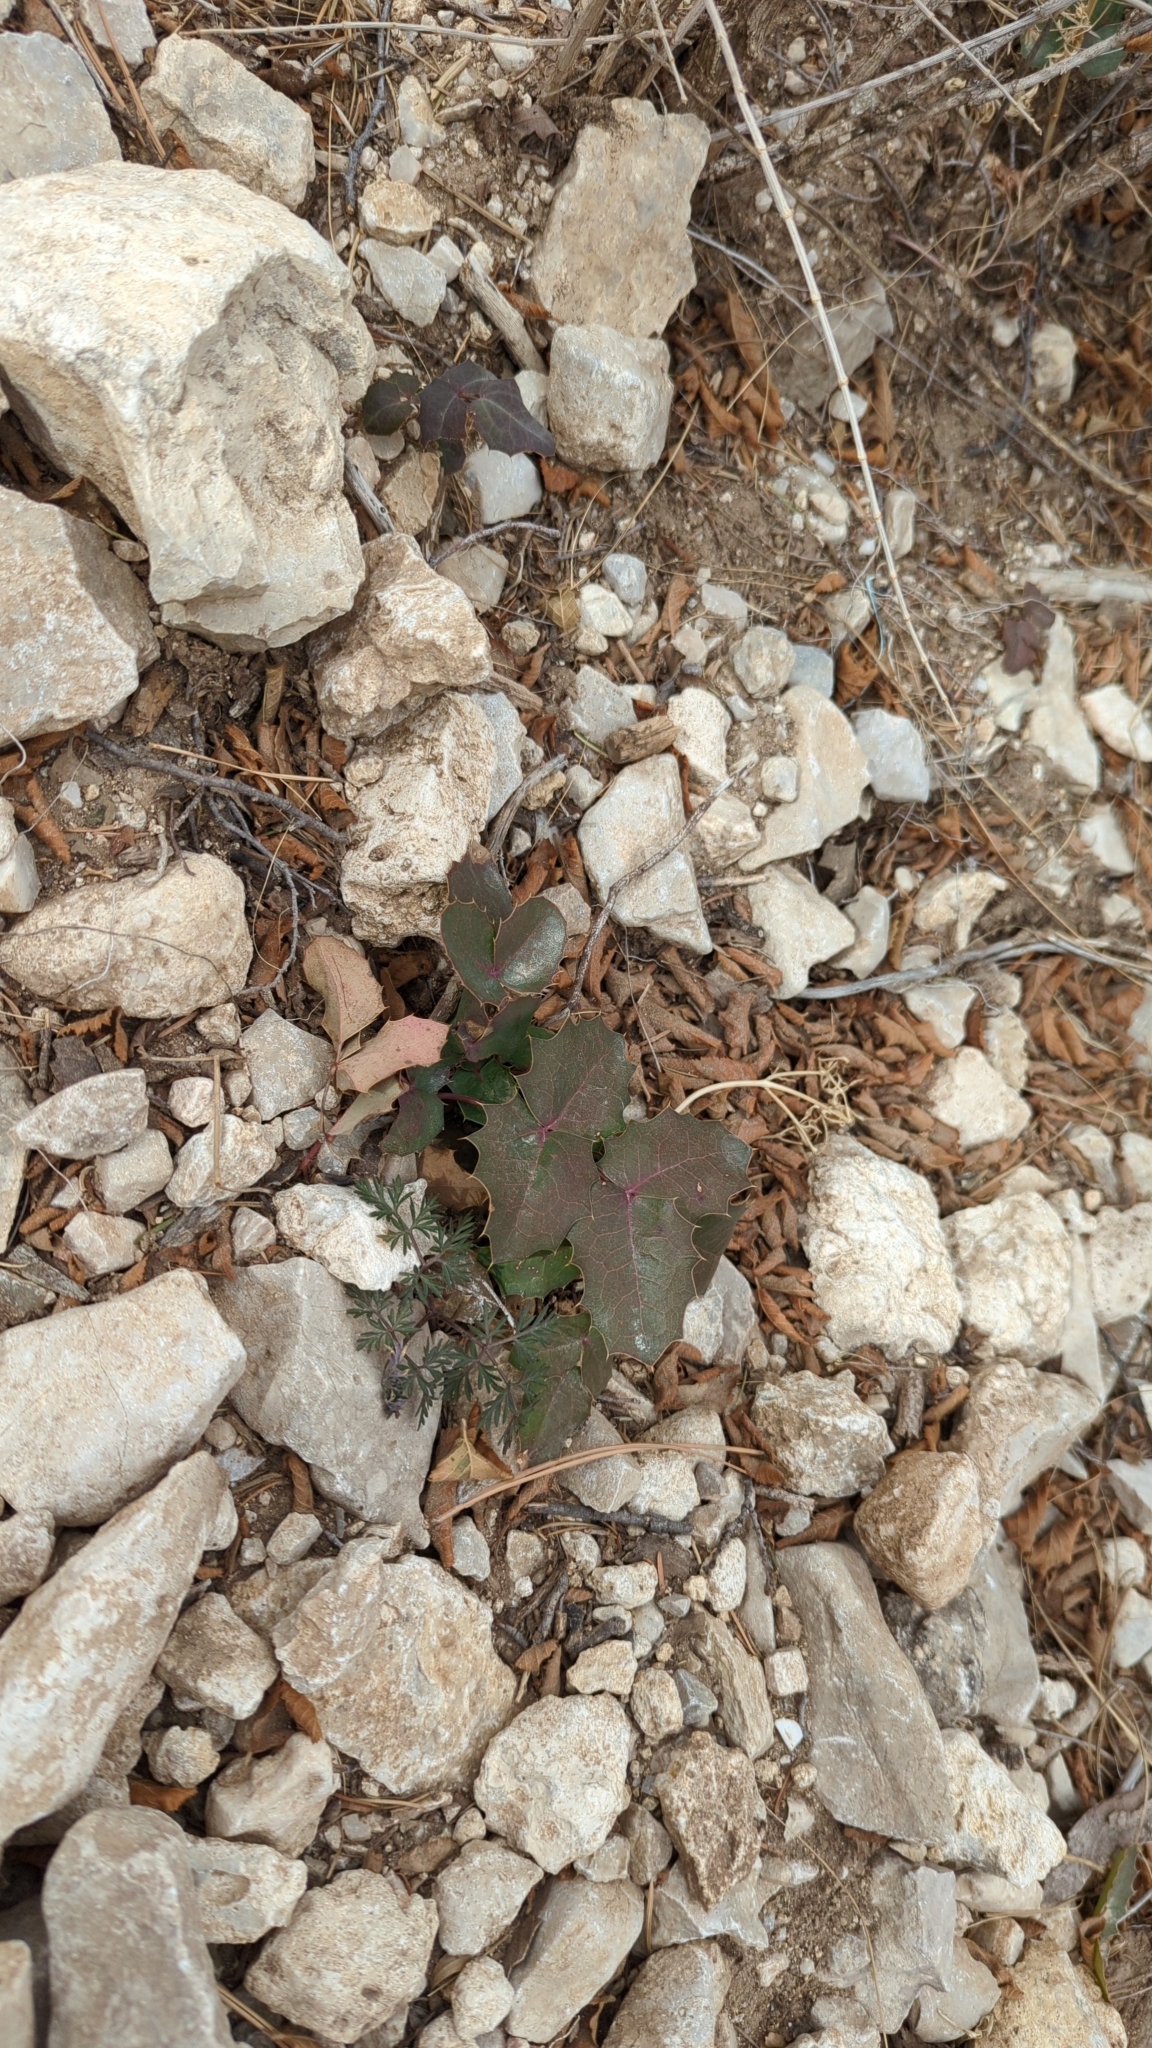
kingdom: Plantae
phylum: Tracheophyta
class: Magnoliopsida
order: Ranunculales
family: Berberidaceae
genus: Mahonia
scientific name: Mahonia repens
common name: Creeping oregon-grape
